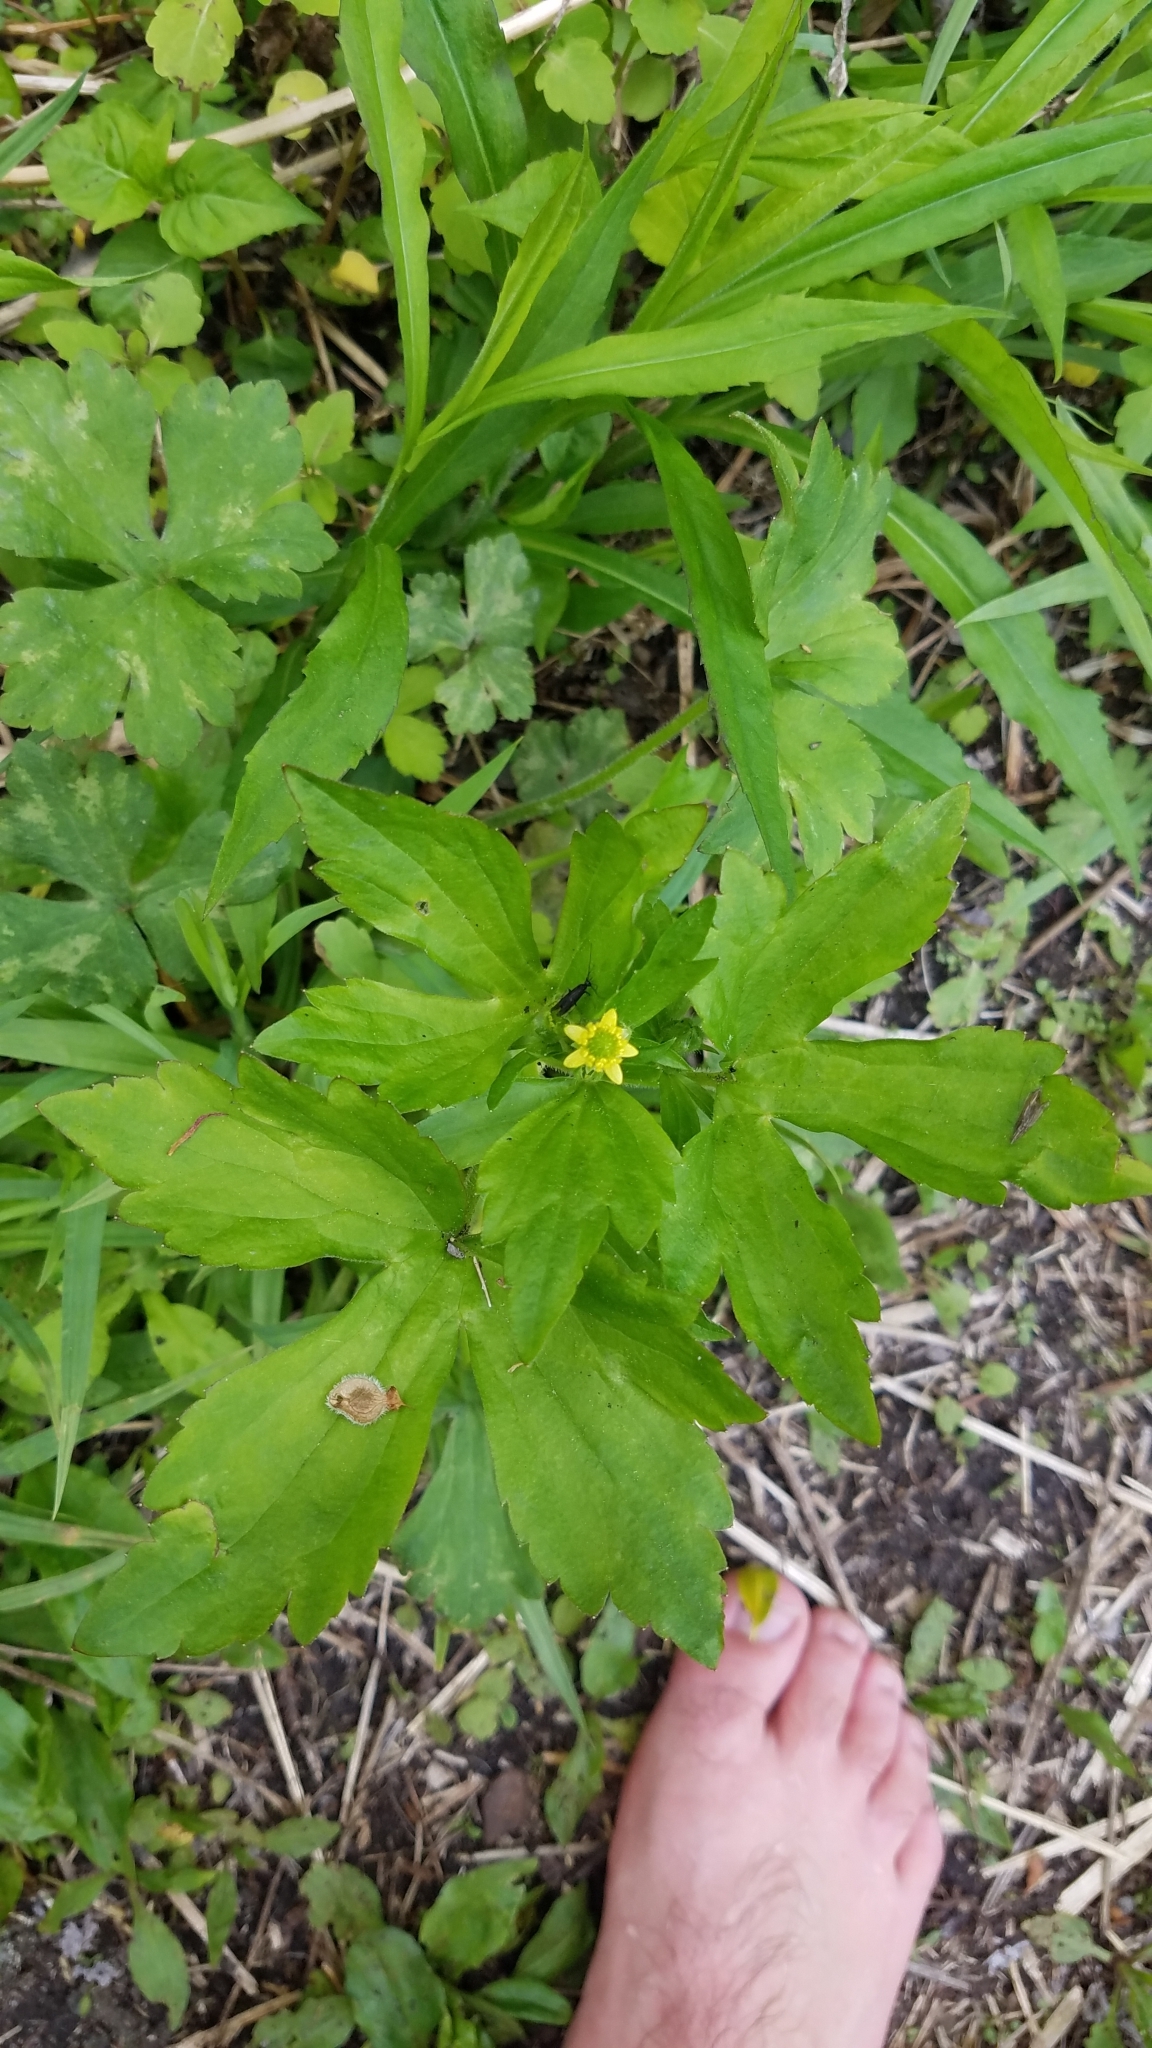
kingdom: Plantae
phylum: Tracheophyta
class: Magnoliopsida
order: Ranunculales
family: Ranunculaceae
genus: Ranunculus
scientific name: Ranunculus recurvatus
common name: Blisterwort
